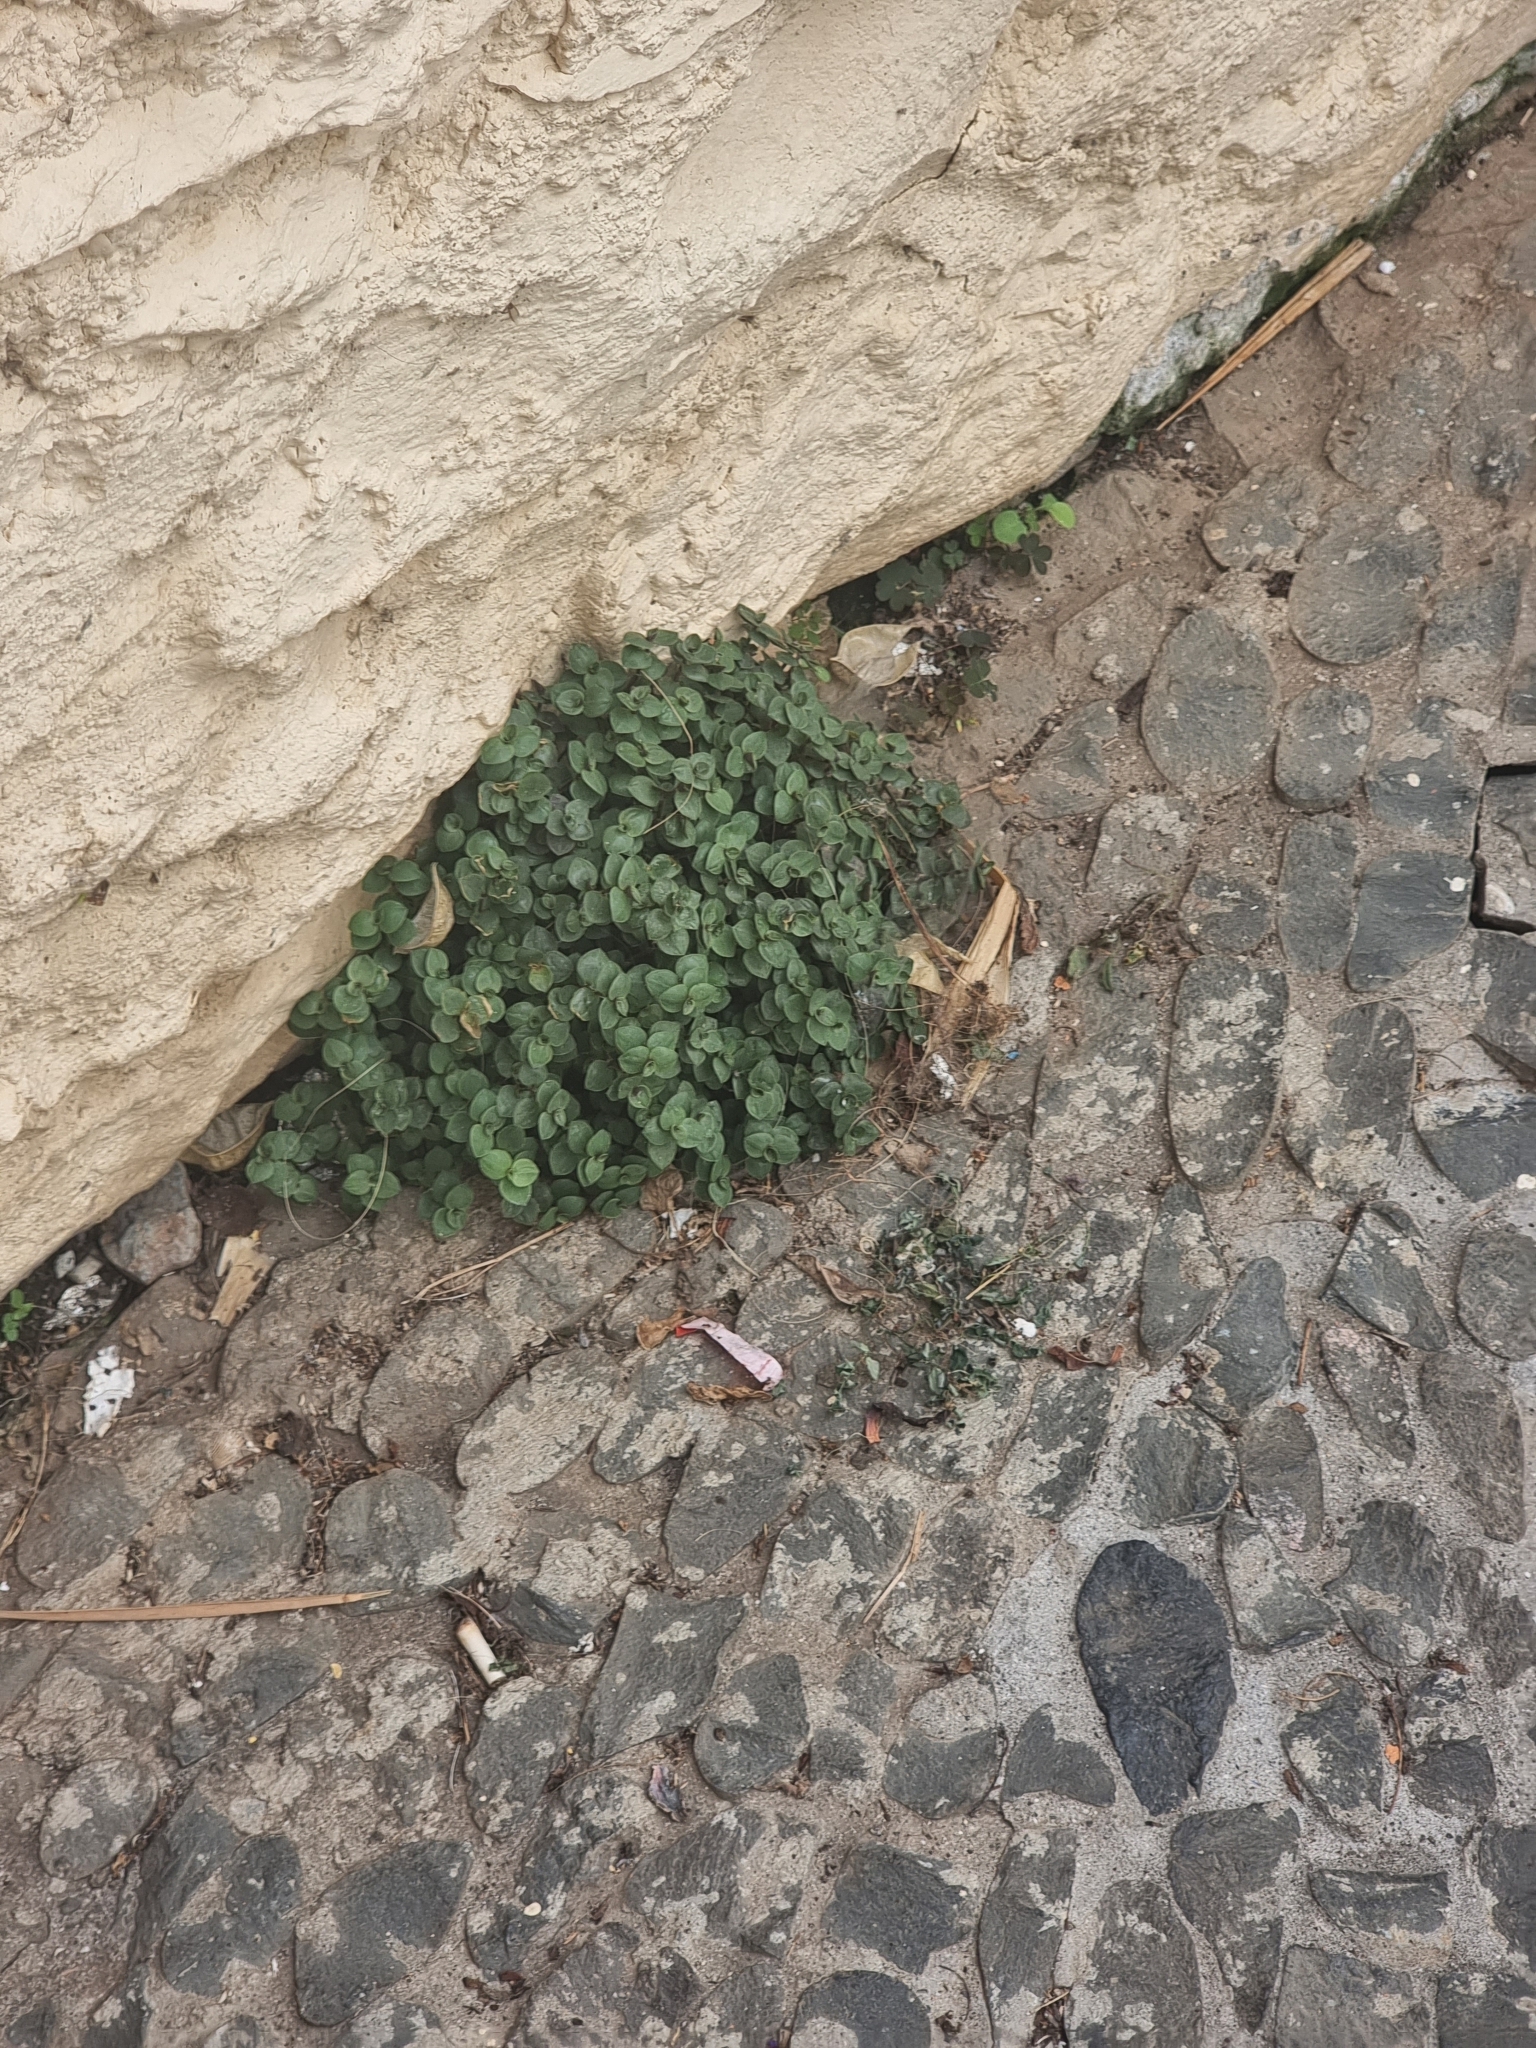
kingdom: Plantae
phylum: Tracheophyta
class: Liliopsida
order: Commelinales
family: Commelinaceae
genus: Callisia
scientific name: Callisia repens
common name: Creeping inchplant
